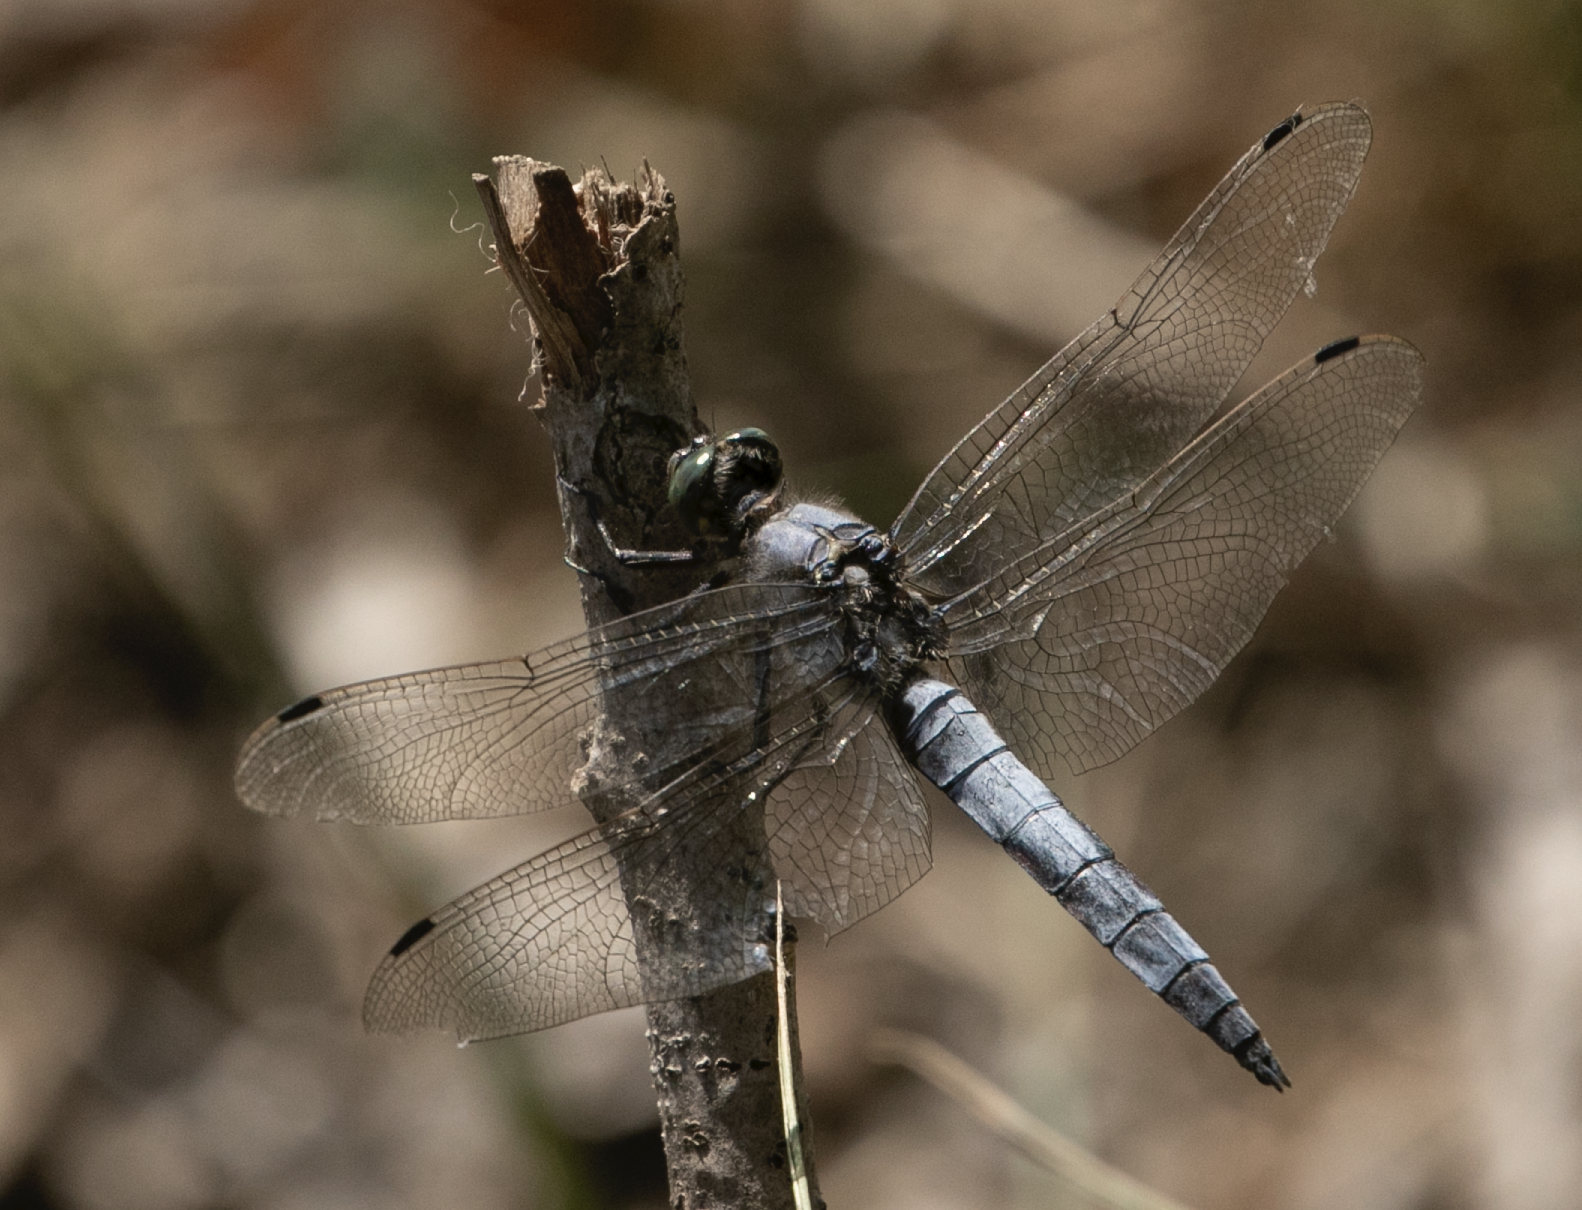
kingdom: Animalia
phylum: Arthropoda
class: Insecta
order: Odonata
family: Libellulidae
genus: Orthetrum
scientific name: Orthetrum cancellatum
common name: Black-tailed skimmer
